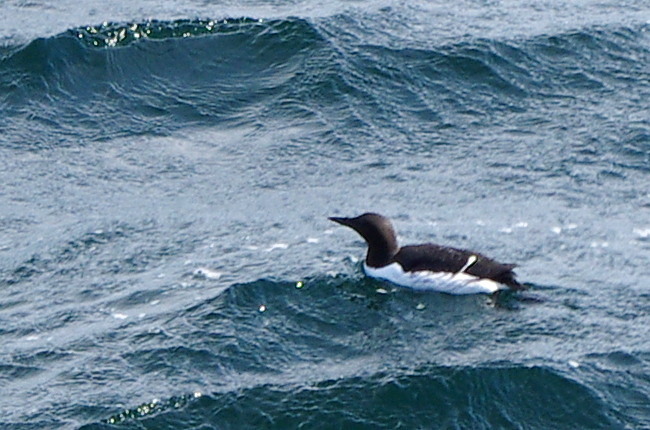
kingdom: Animalia
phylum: Chordata
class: Aves
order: Charadriiformes
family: Alcidae
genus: Uria
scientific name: Uria aalge
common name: Common murre
